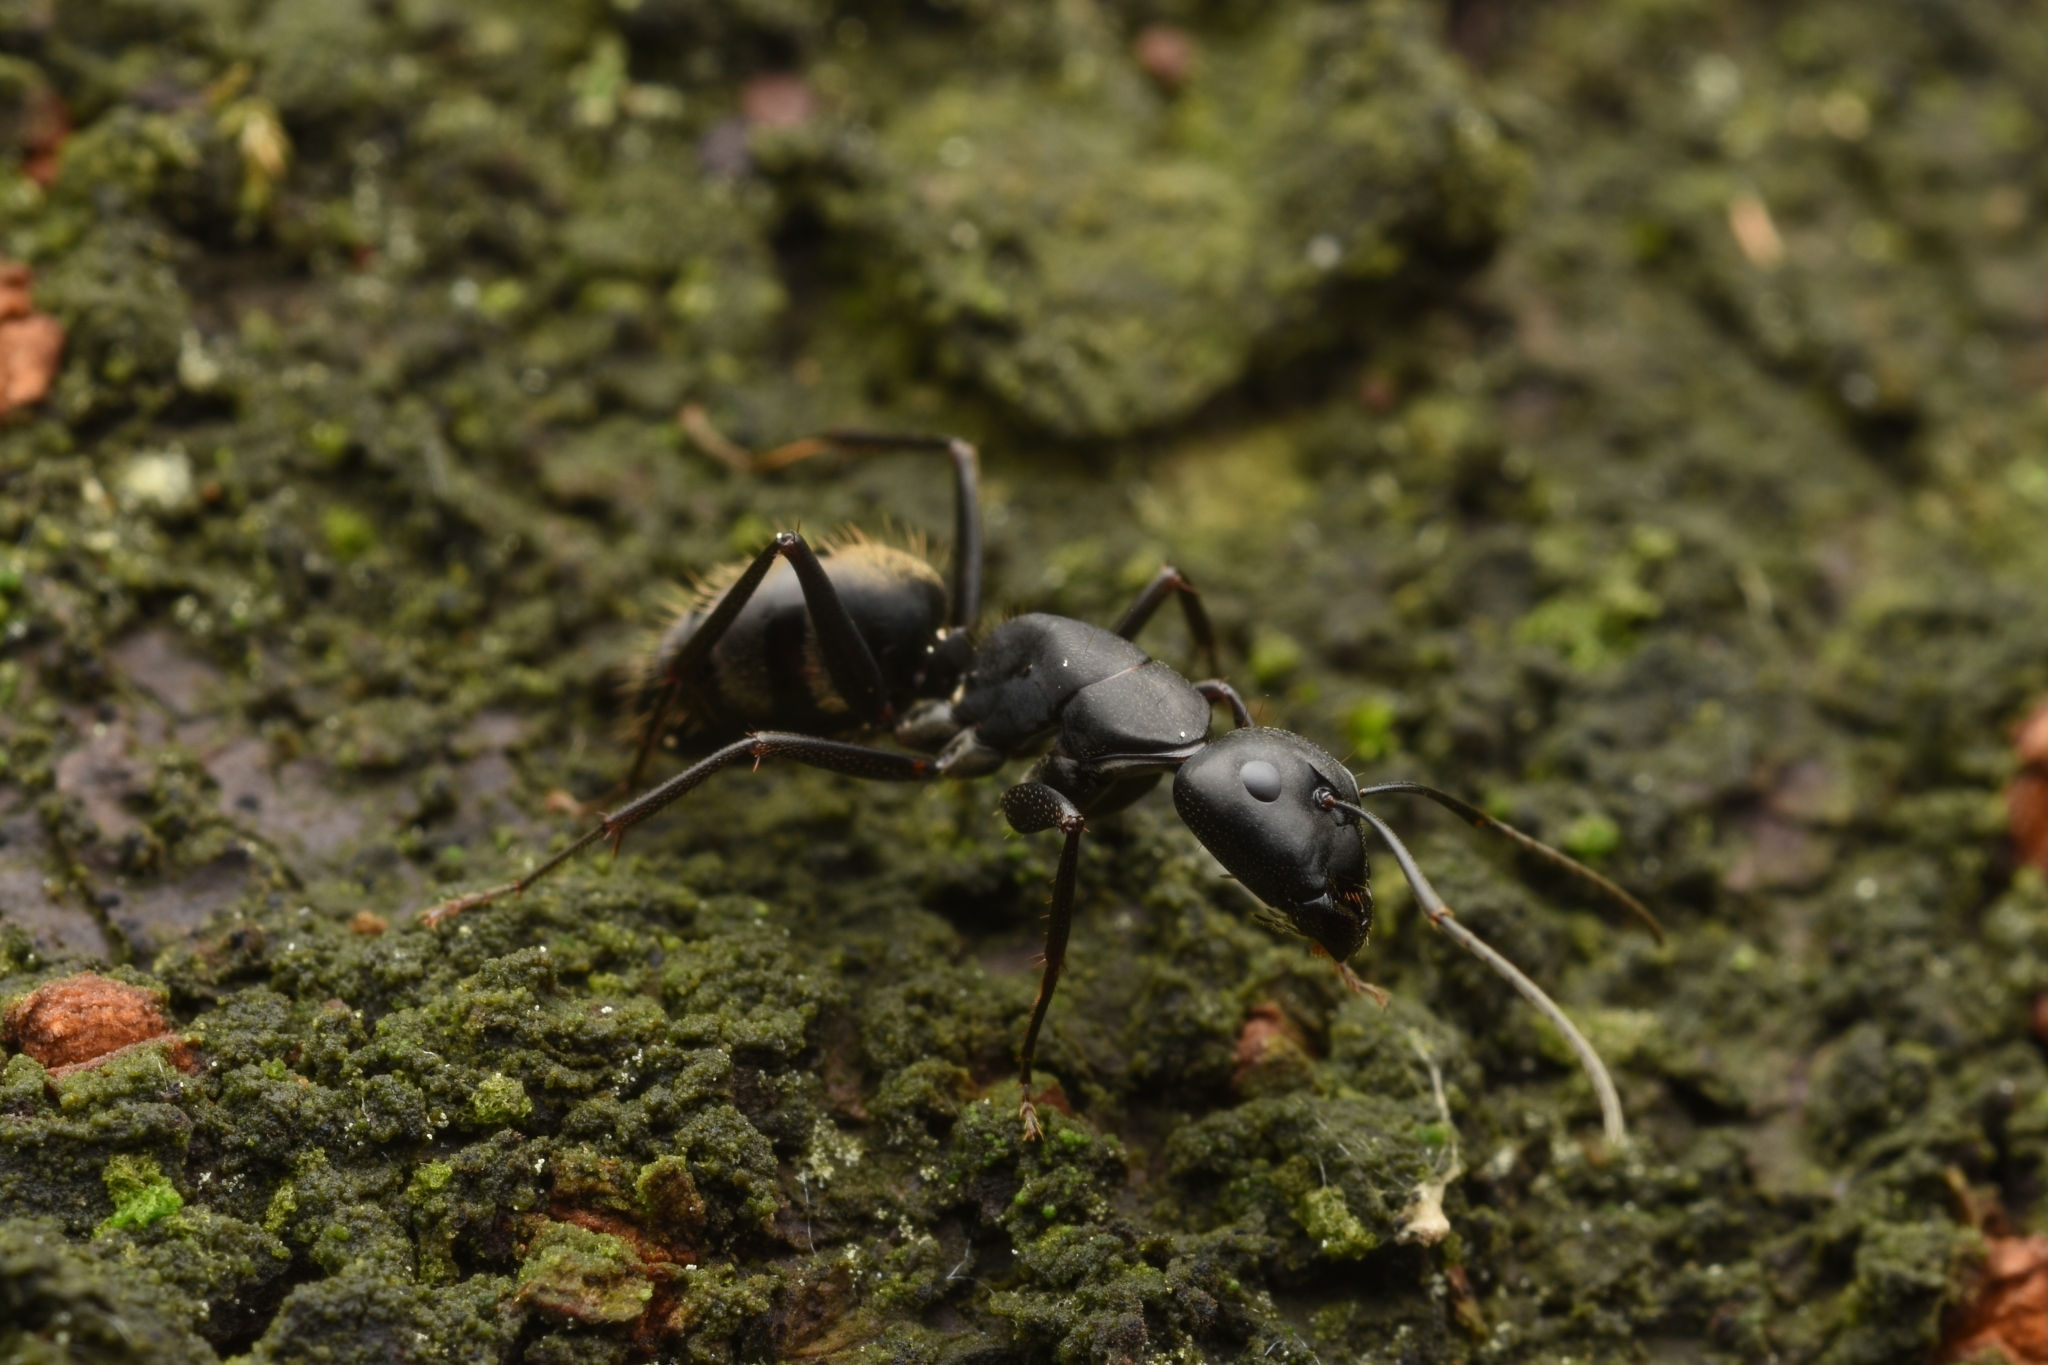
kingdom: Animalia
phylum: Arthropoda
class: Insecta
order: Hymenoptera
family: Formicidae
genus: Camponotus
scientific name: Camponotus japonicus
